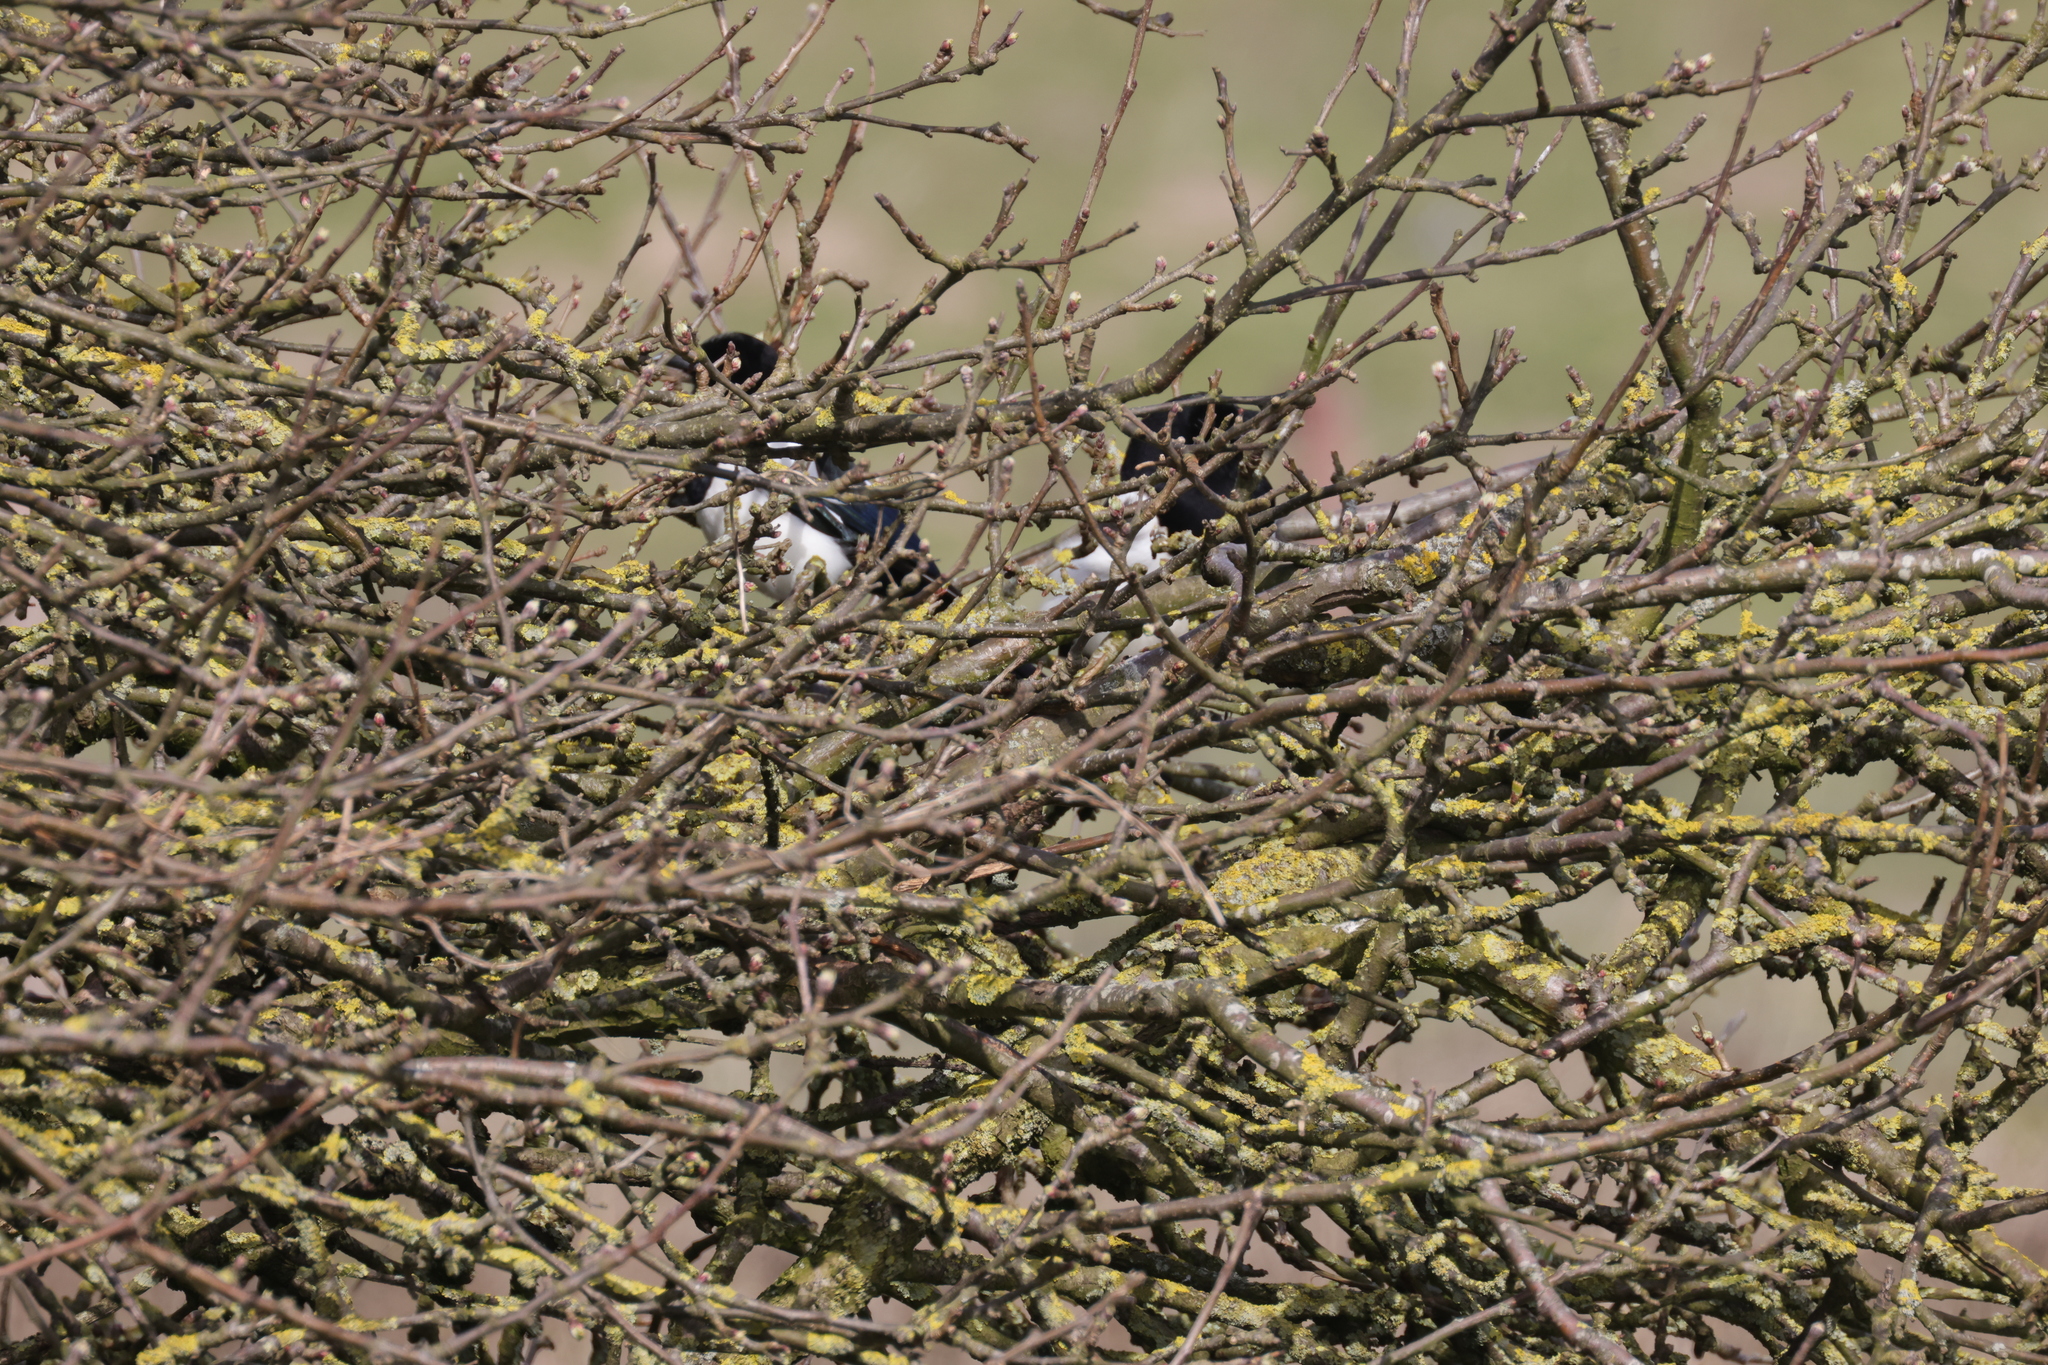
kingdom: Animalia
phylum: Chordata
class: Aves
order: Passeriformes
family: Corvidae
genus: Pica
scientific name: Pica pica
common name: Eurasian magpie
